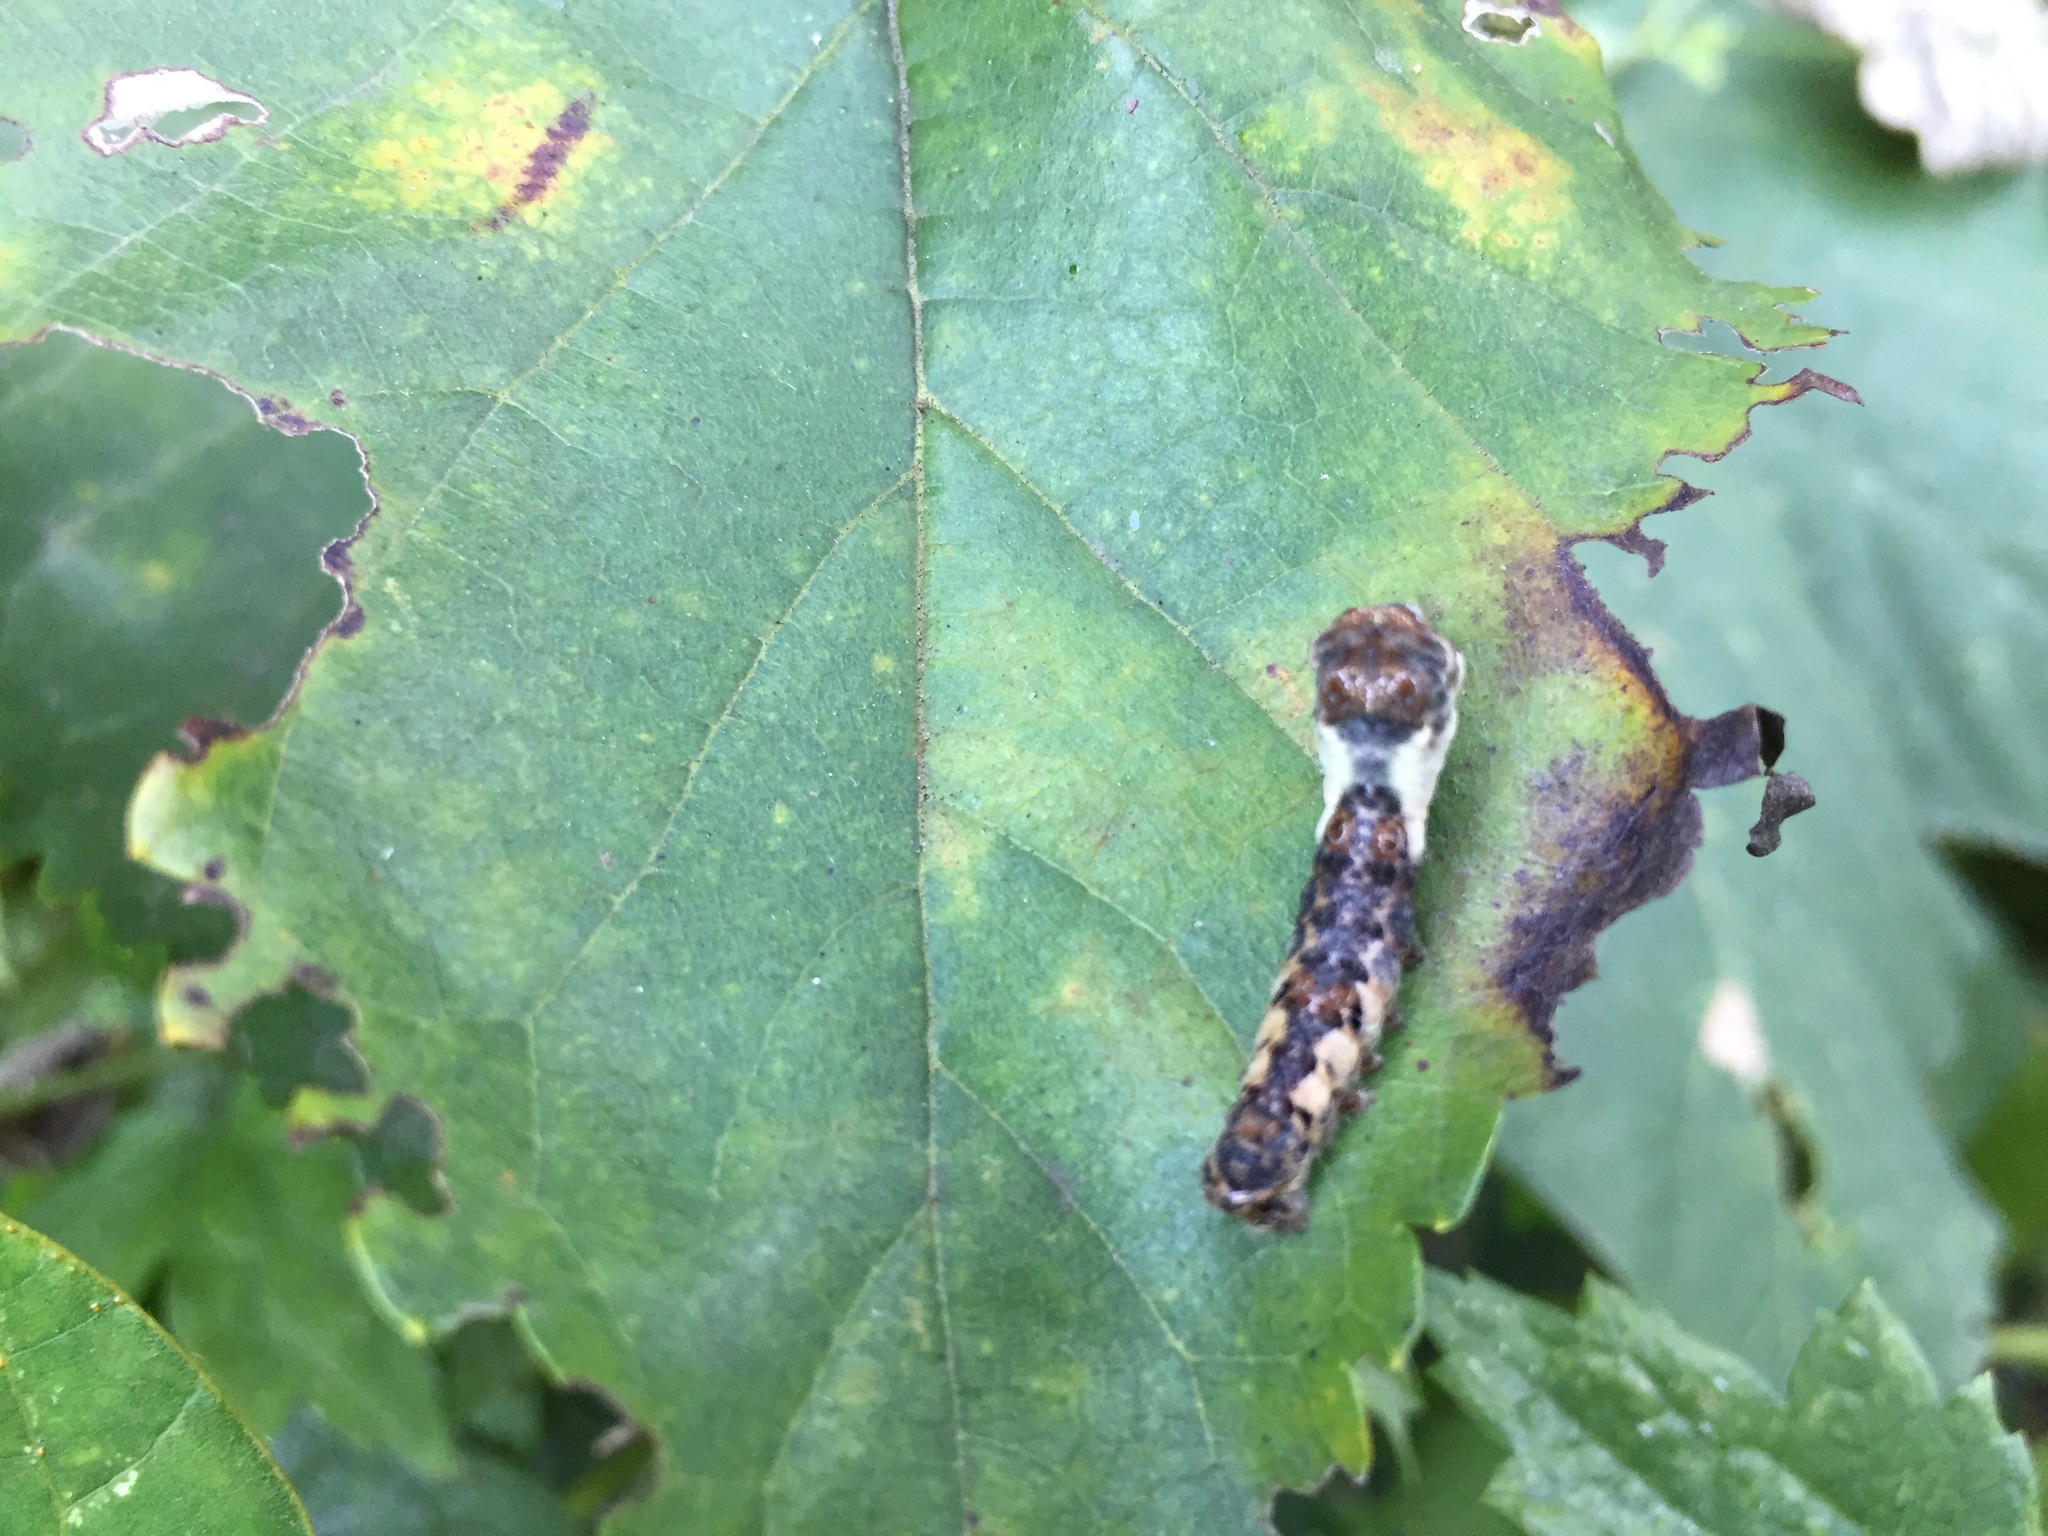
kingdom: Animalia
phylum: Arthropoda
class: Insecta
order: Lepidoptera
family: Bombycidae
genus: Bombyx
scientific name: Bombyx mandarina
